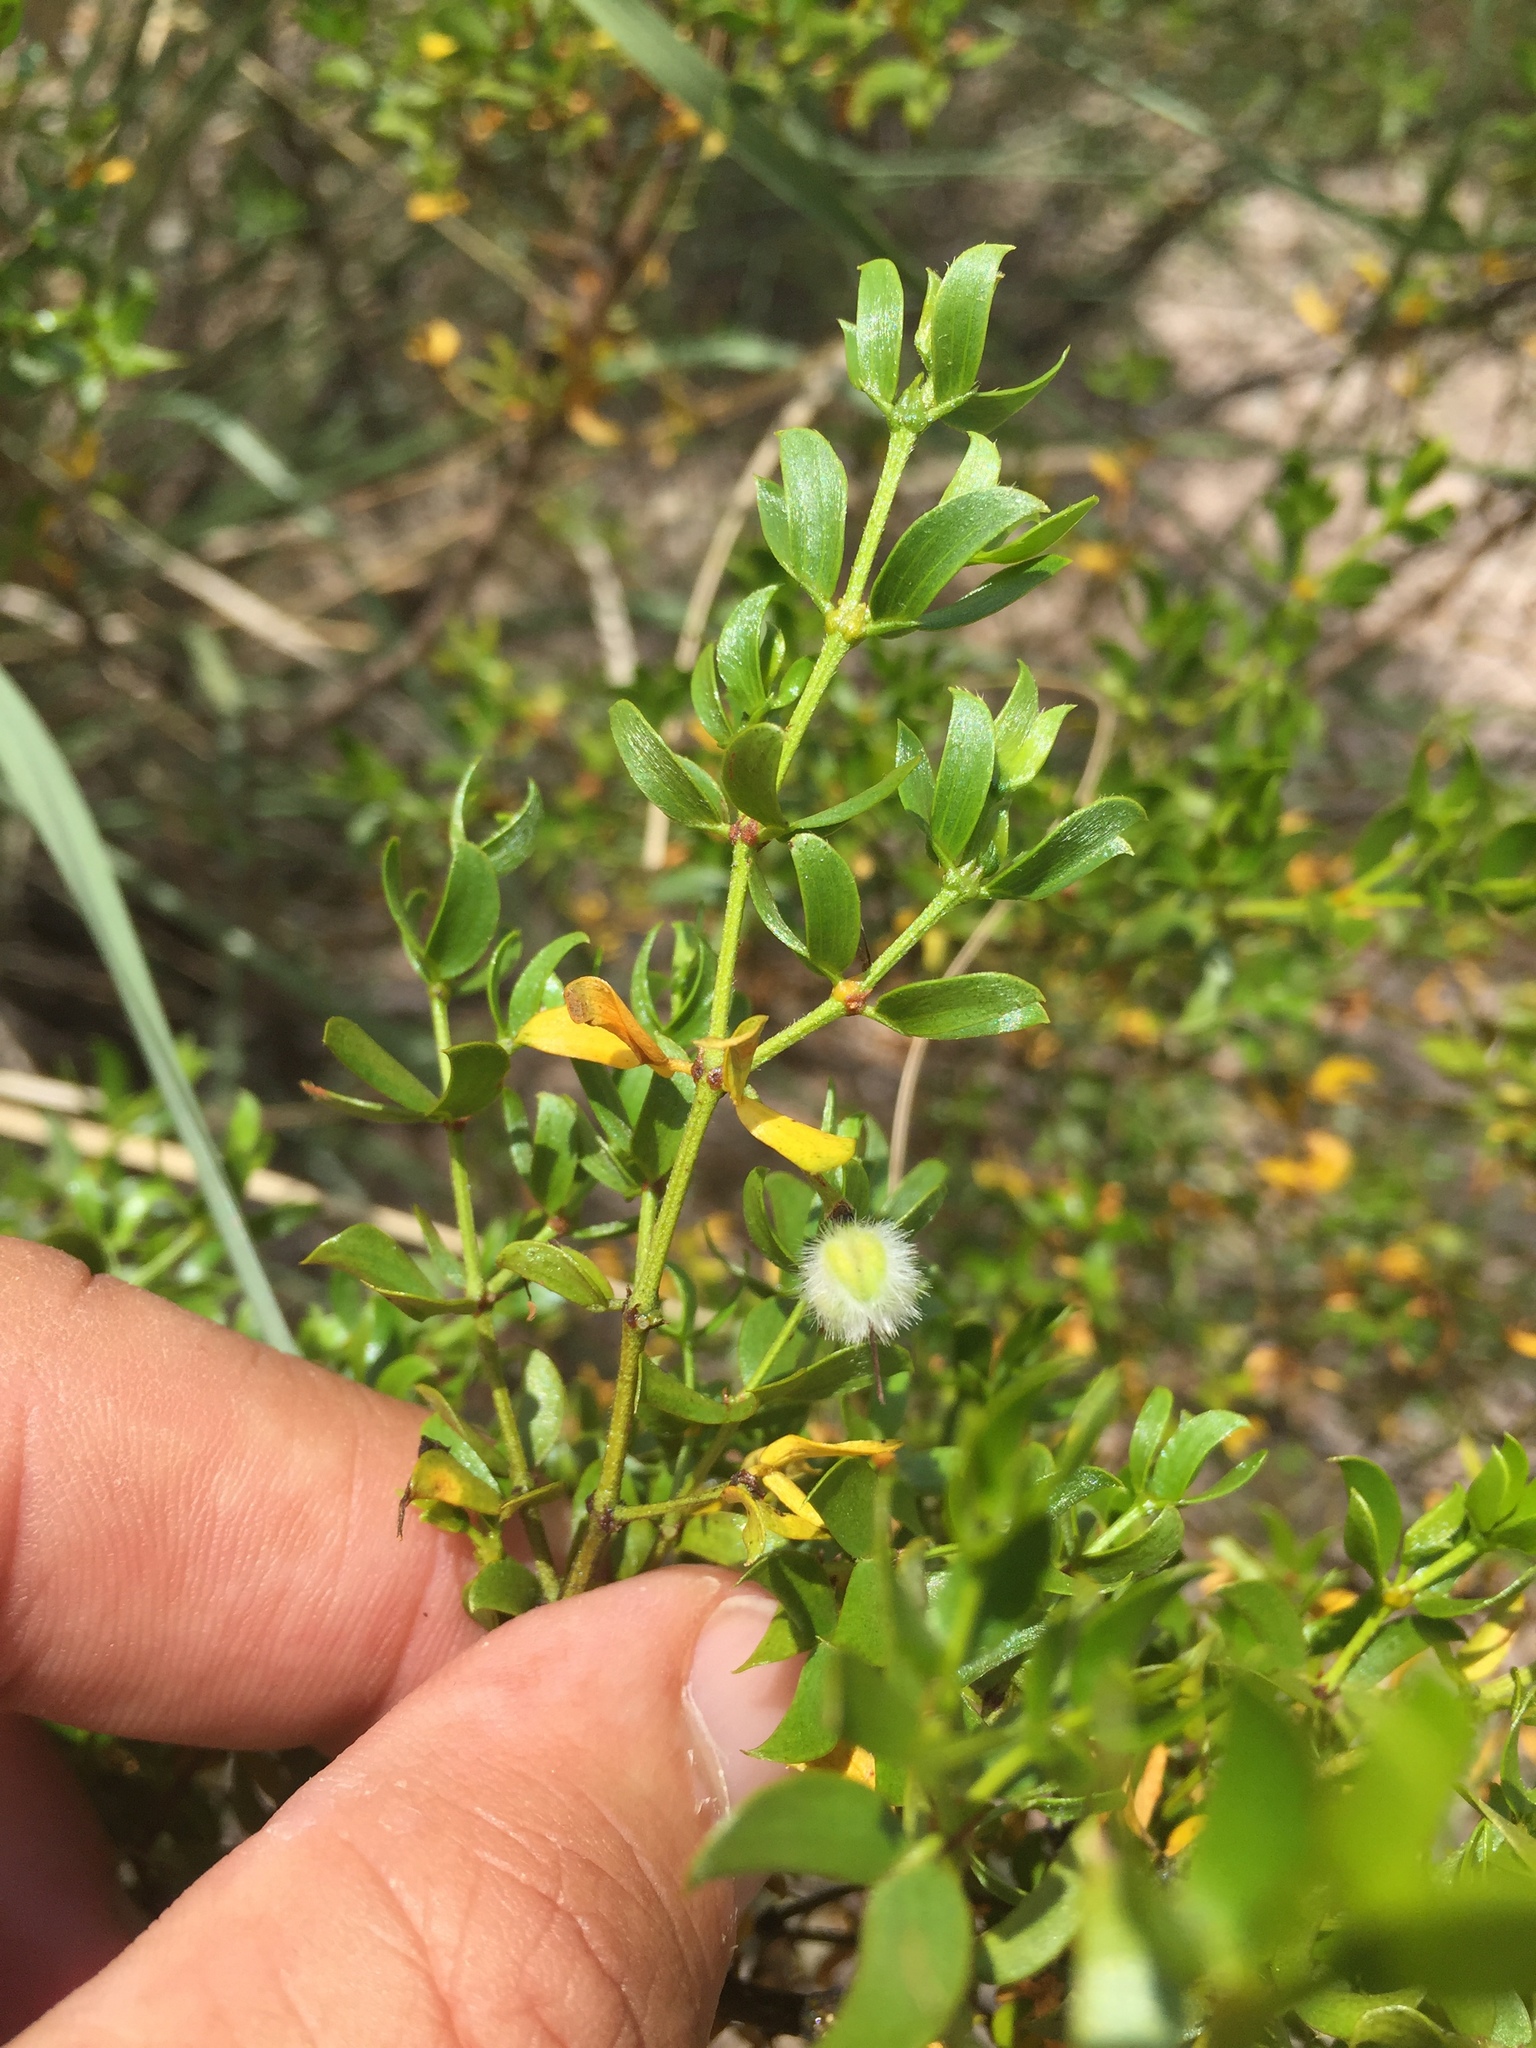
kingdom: Plantae
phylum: Tracheophyta
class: Magnoliopsida
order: Zygophyllales
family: Zygophyllaceae
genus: Larrea
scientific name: Larrea tridentata
